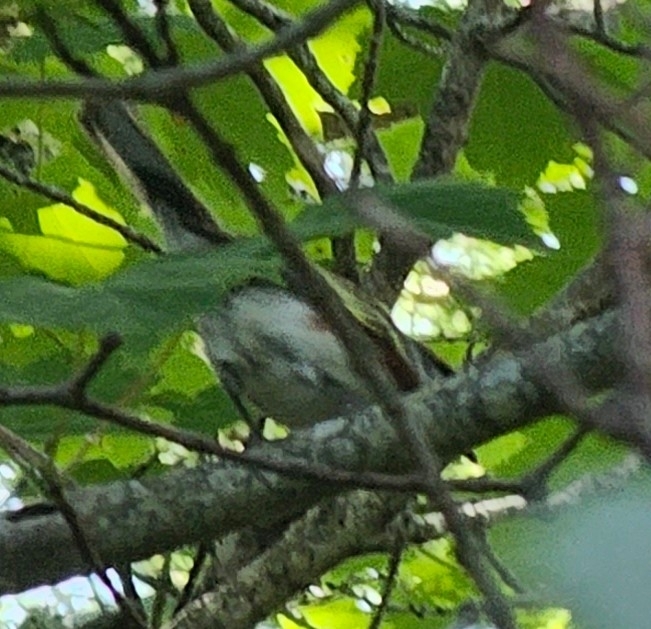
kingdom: Animalia
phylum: Chordata
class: Aves
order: Passeriformes
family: Parulidae
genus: Setophaga
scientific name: Setophaga pensylvanica
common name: Chestnut-sided warbler
